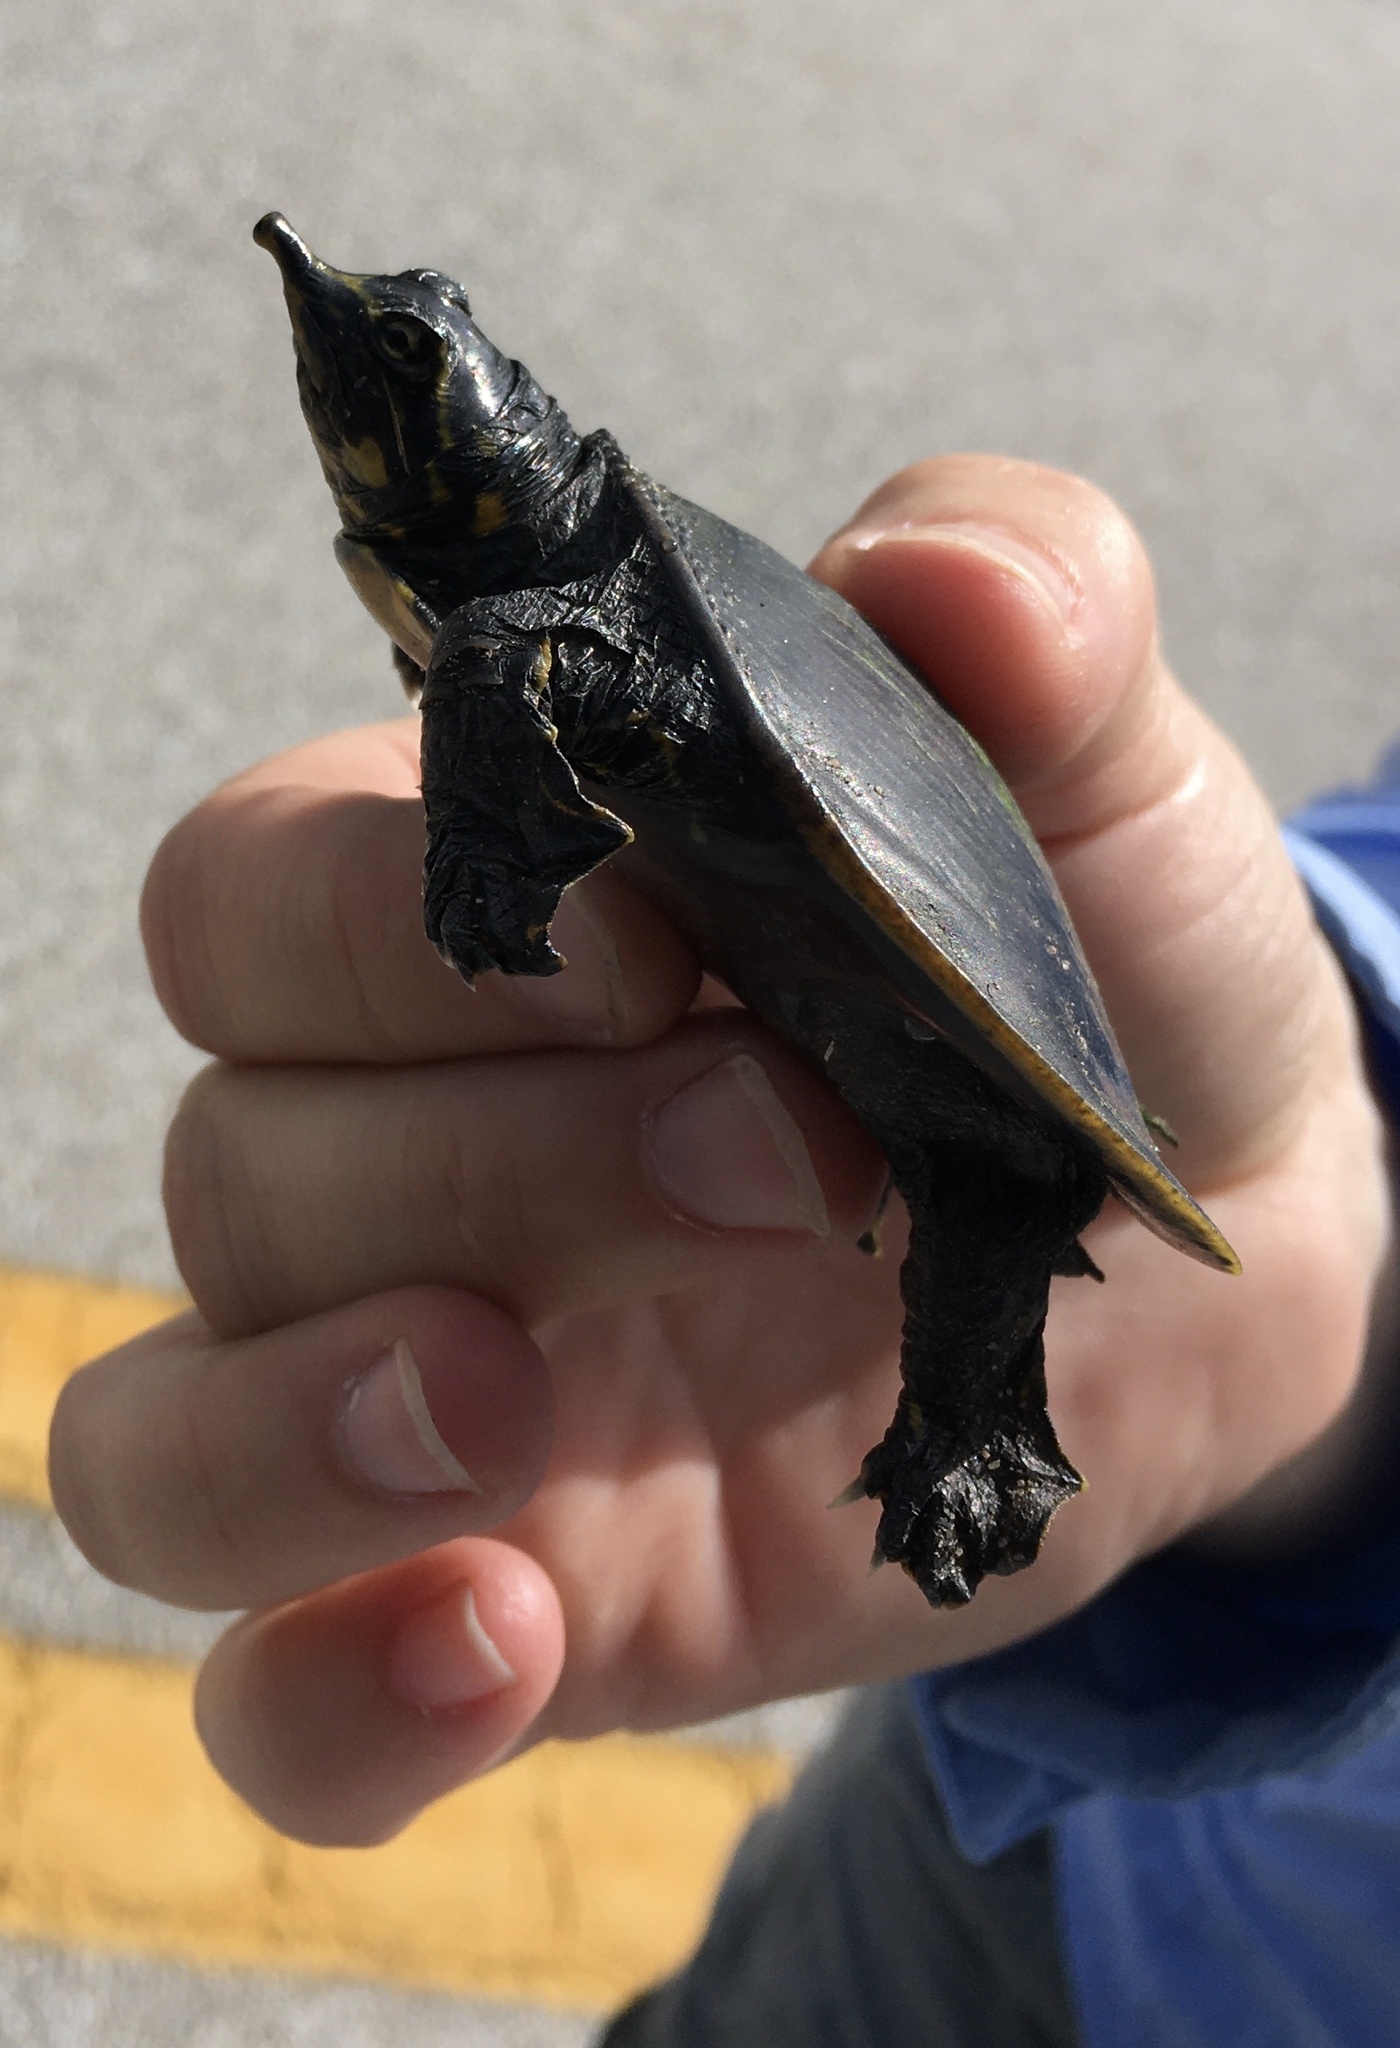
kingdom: Animalia
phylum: Chordata
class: Testudines
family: Trionychidae
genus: Apalone
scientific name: Apalone ferox
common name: Florida softshell turtle
